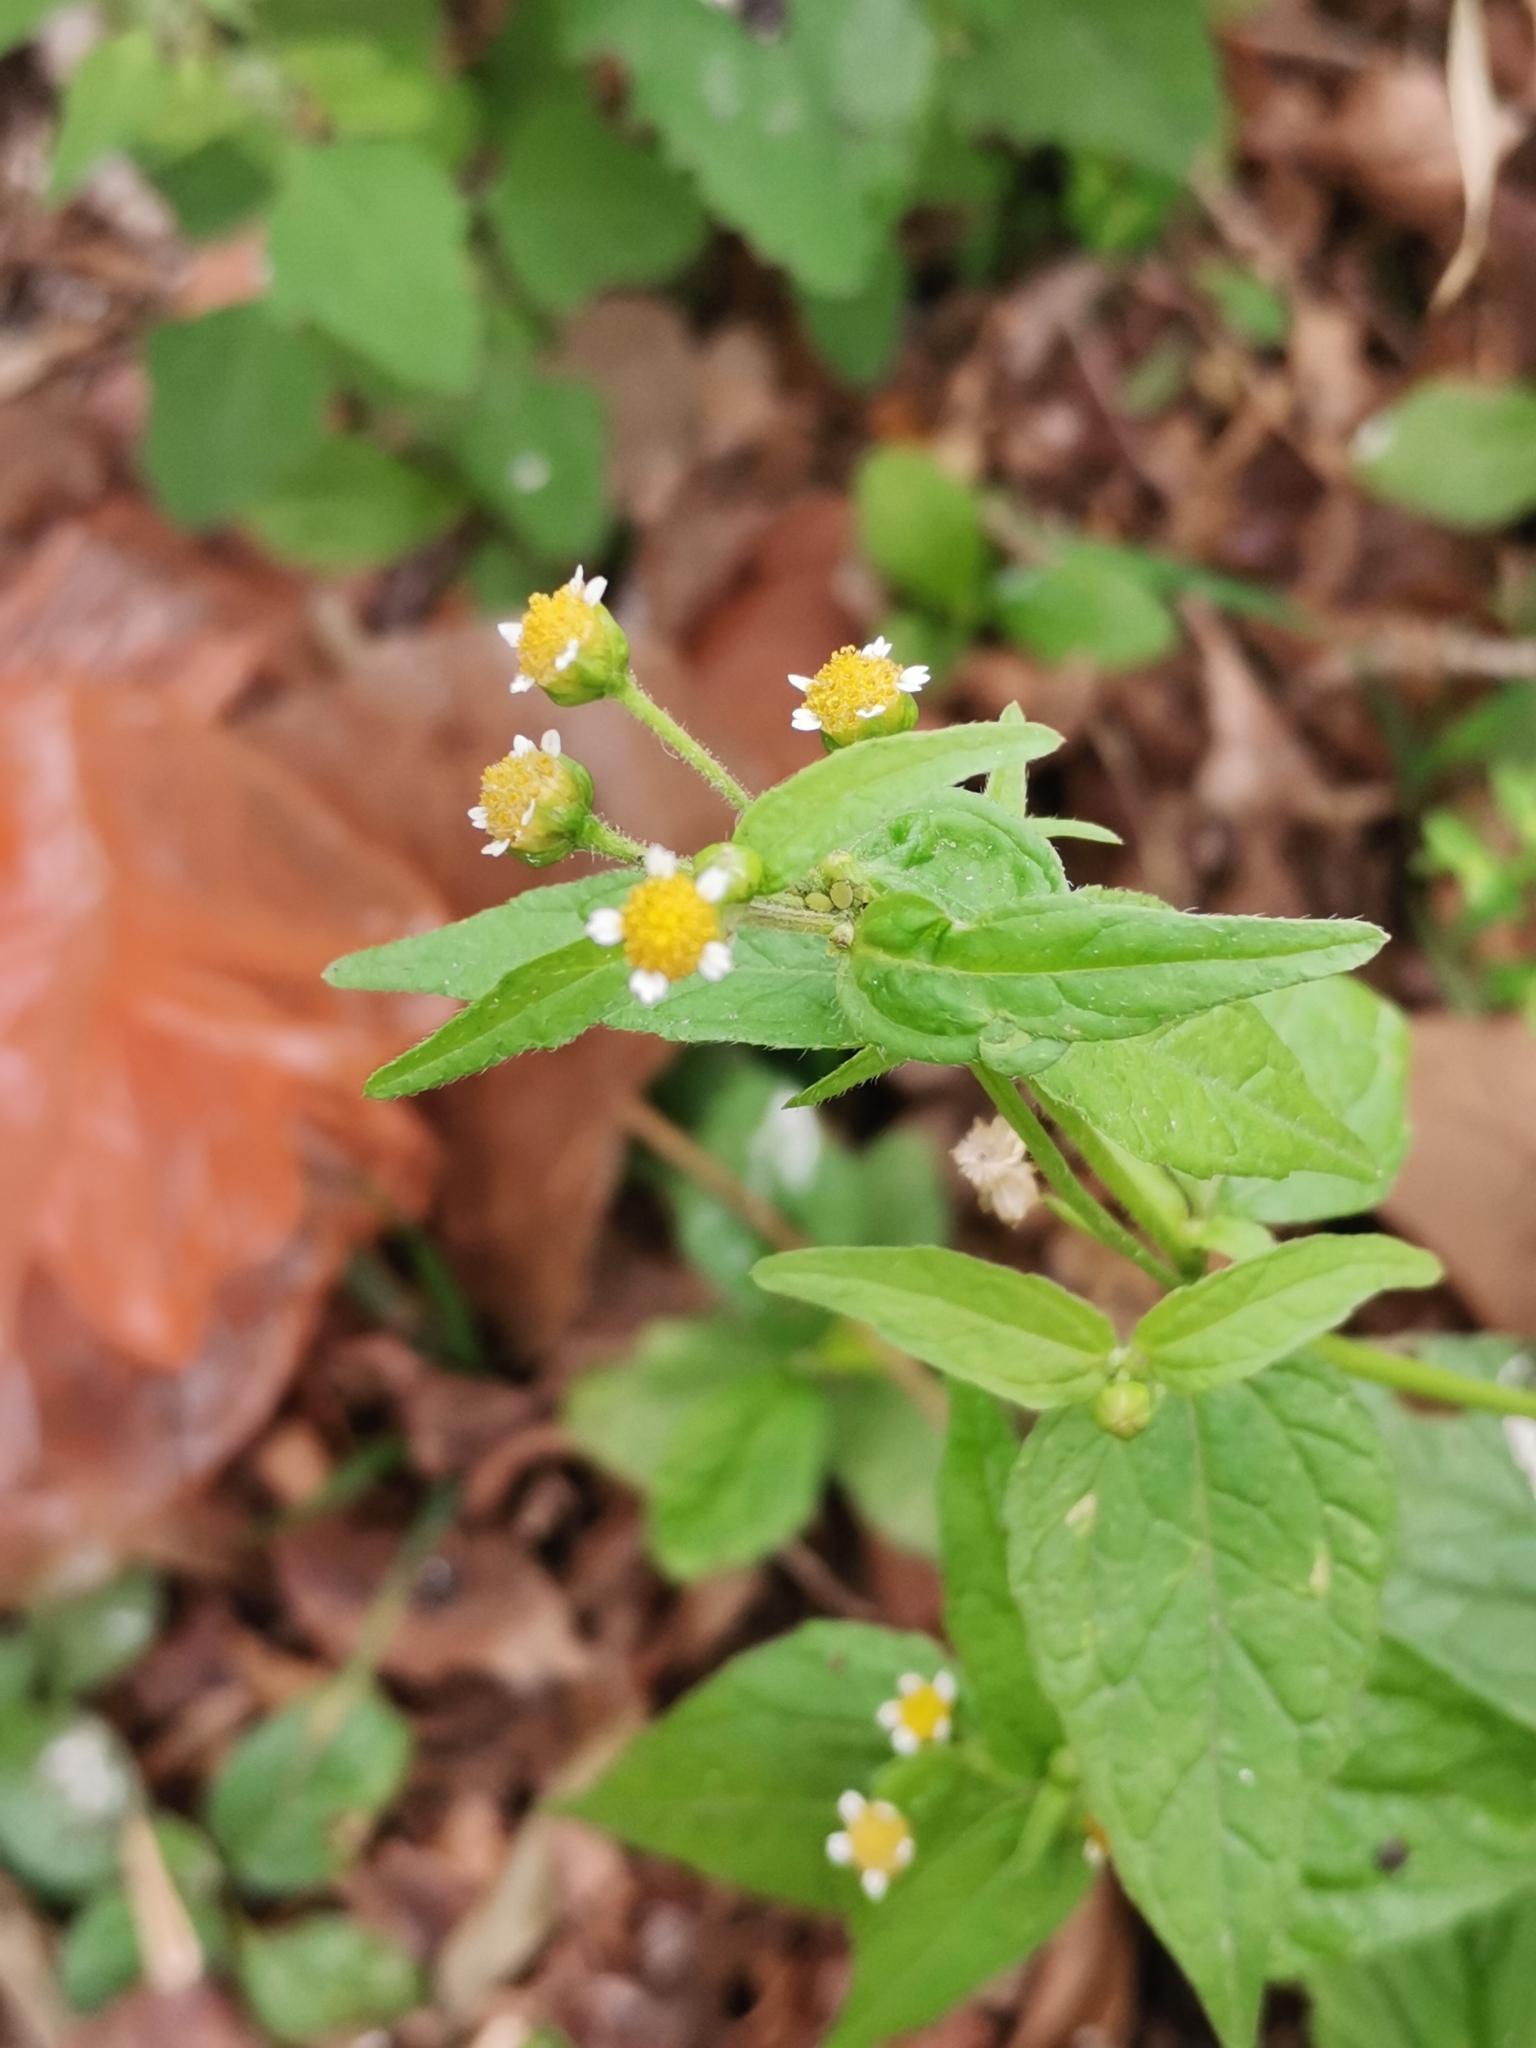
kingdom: Plantae
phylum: Tracheophyta
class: Magnoliopsida
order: Asterales
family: Asteraceae
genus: Galinsoga
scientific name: Galinsoga parviflora
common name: Gallant soldier
